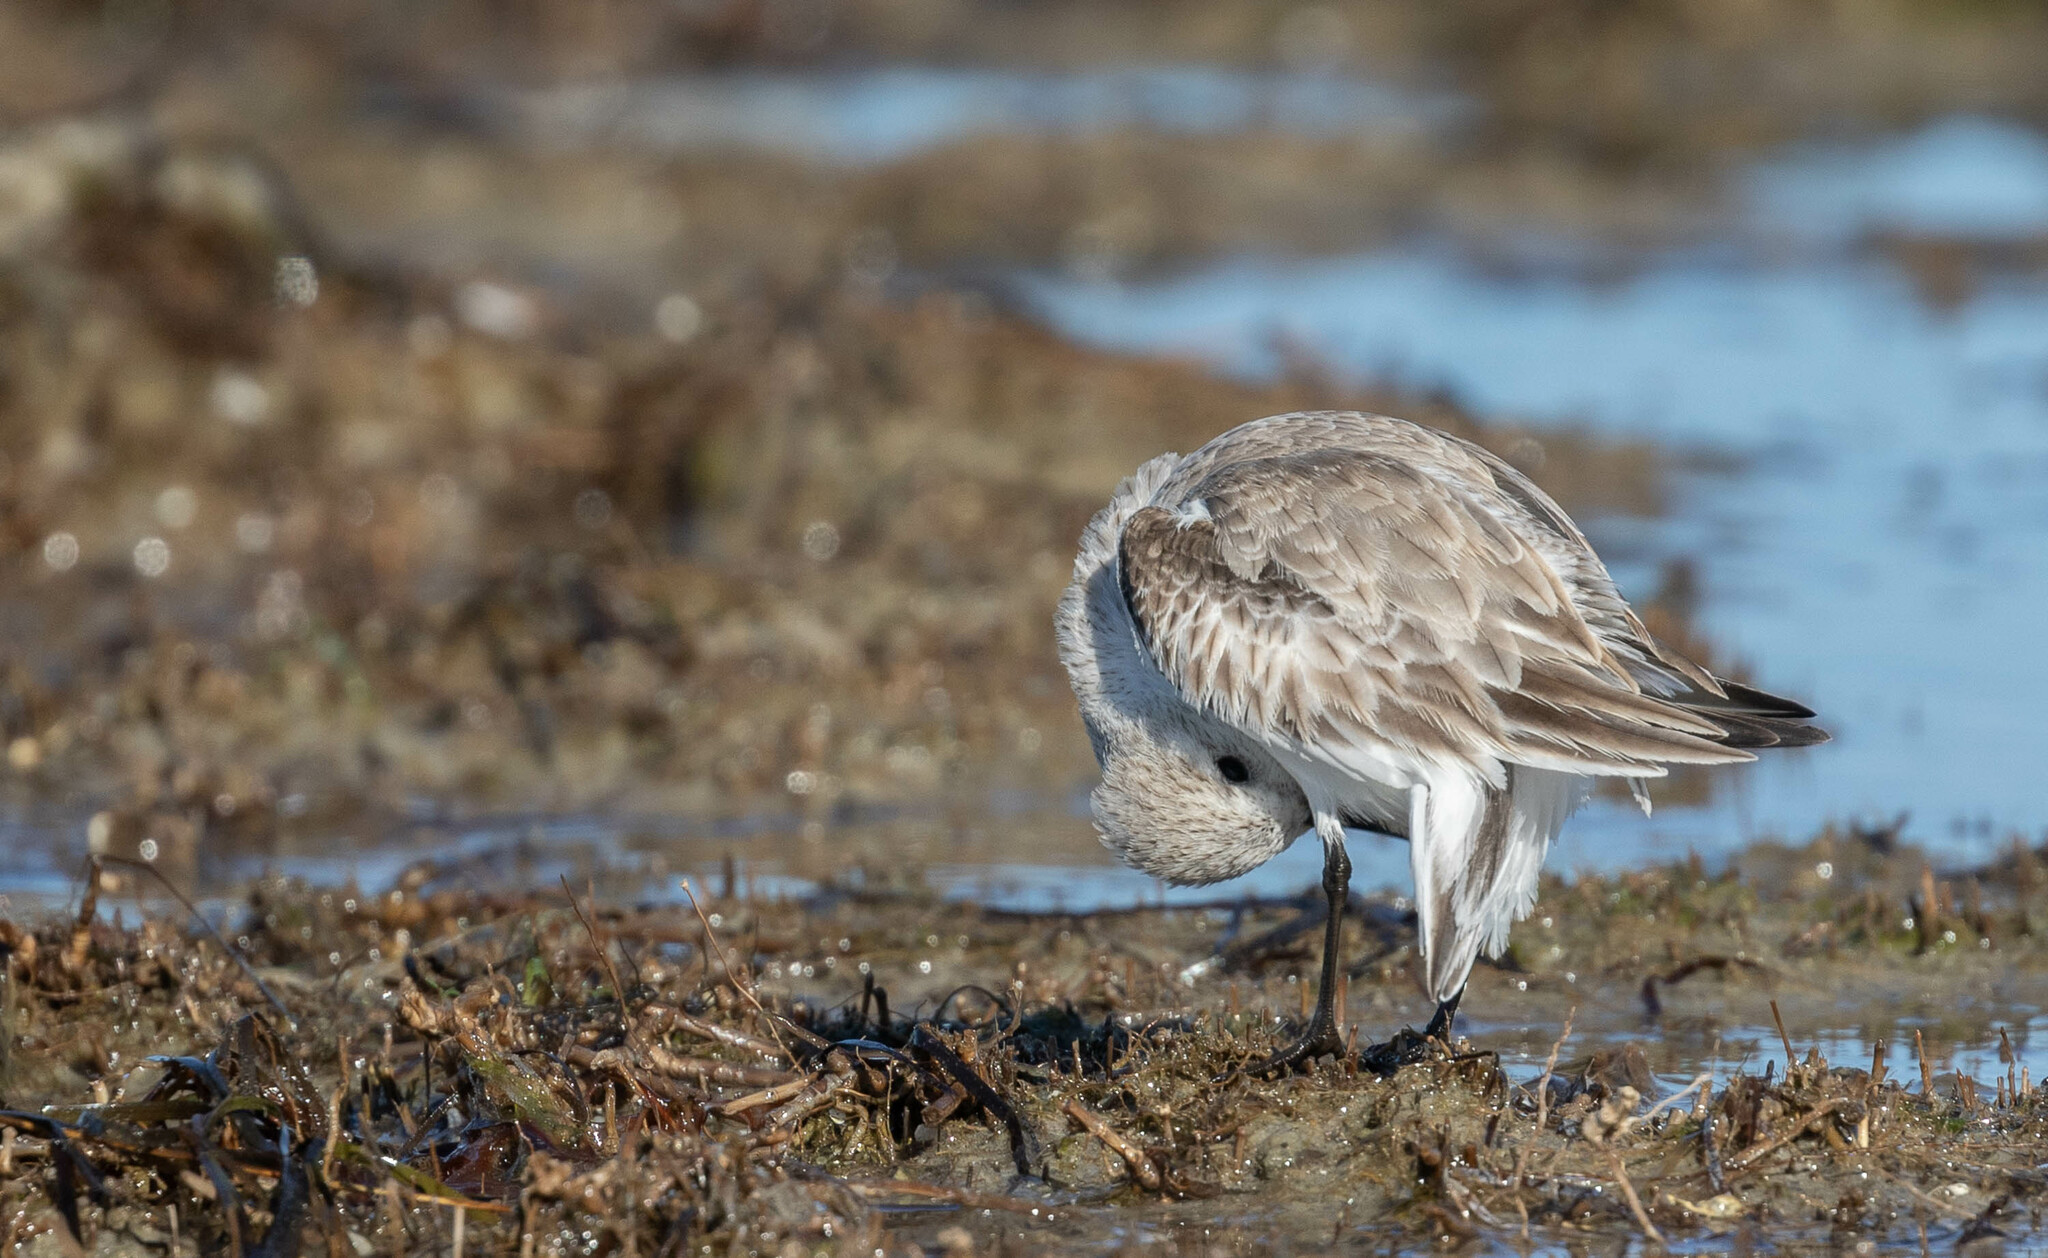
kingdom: Animalia
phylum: Chordata
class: Aves
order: Charadriiformes
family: Scolopacidae
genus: Calidris
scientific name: Calidris alba
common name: Sanderling
